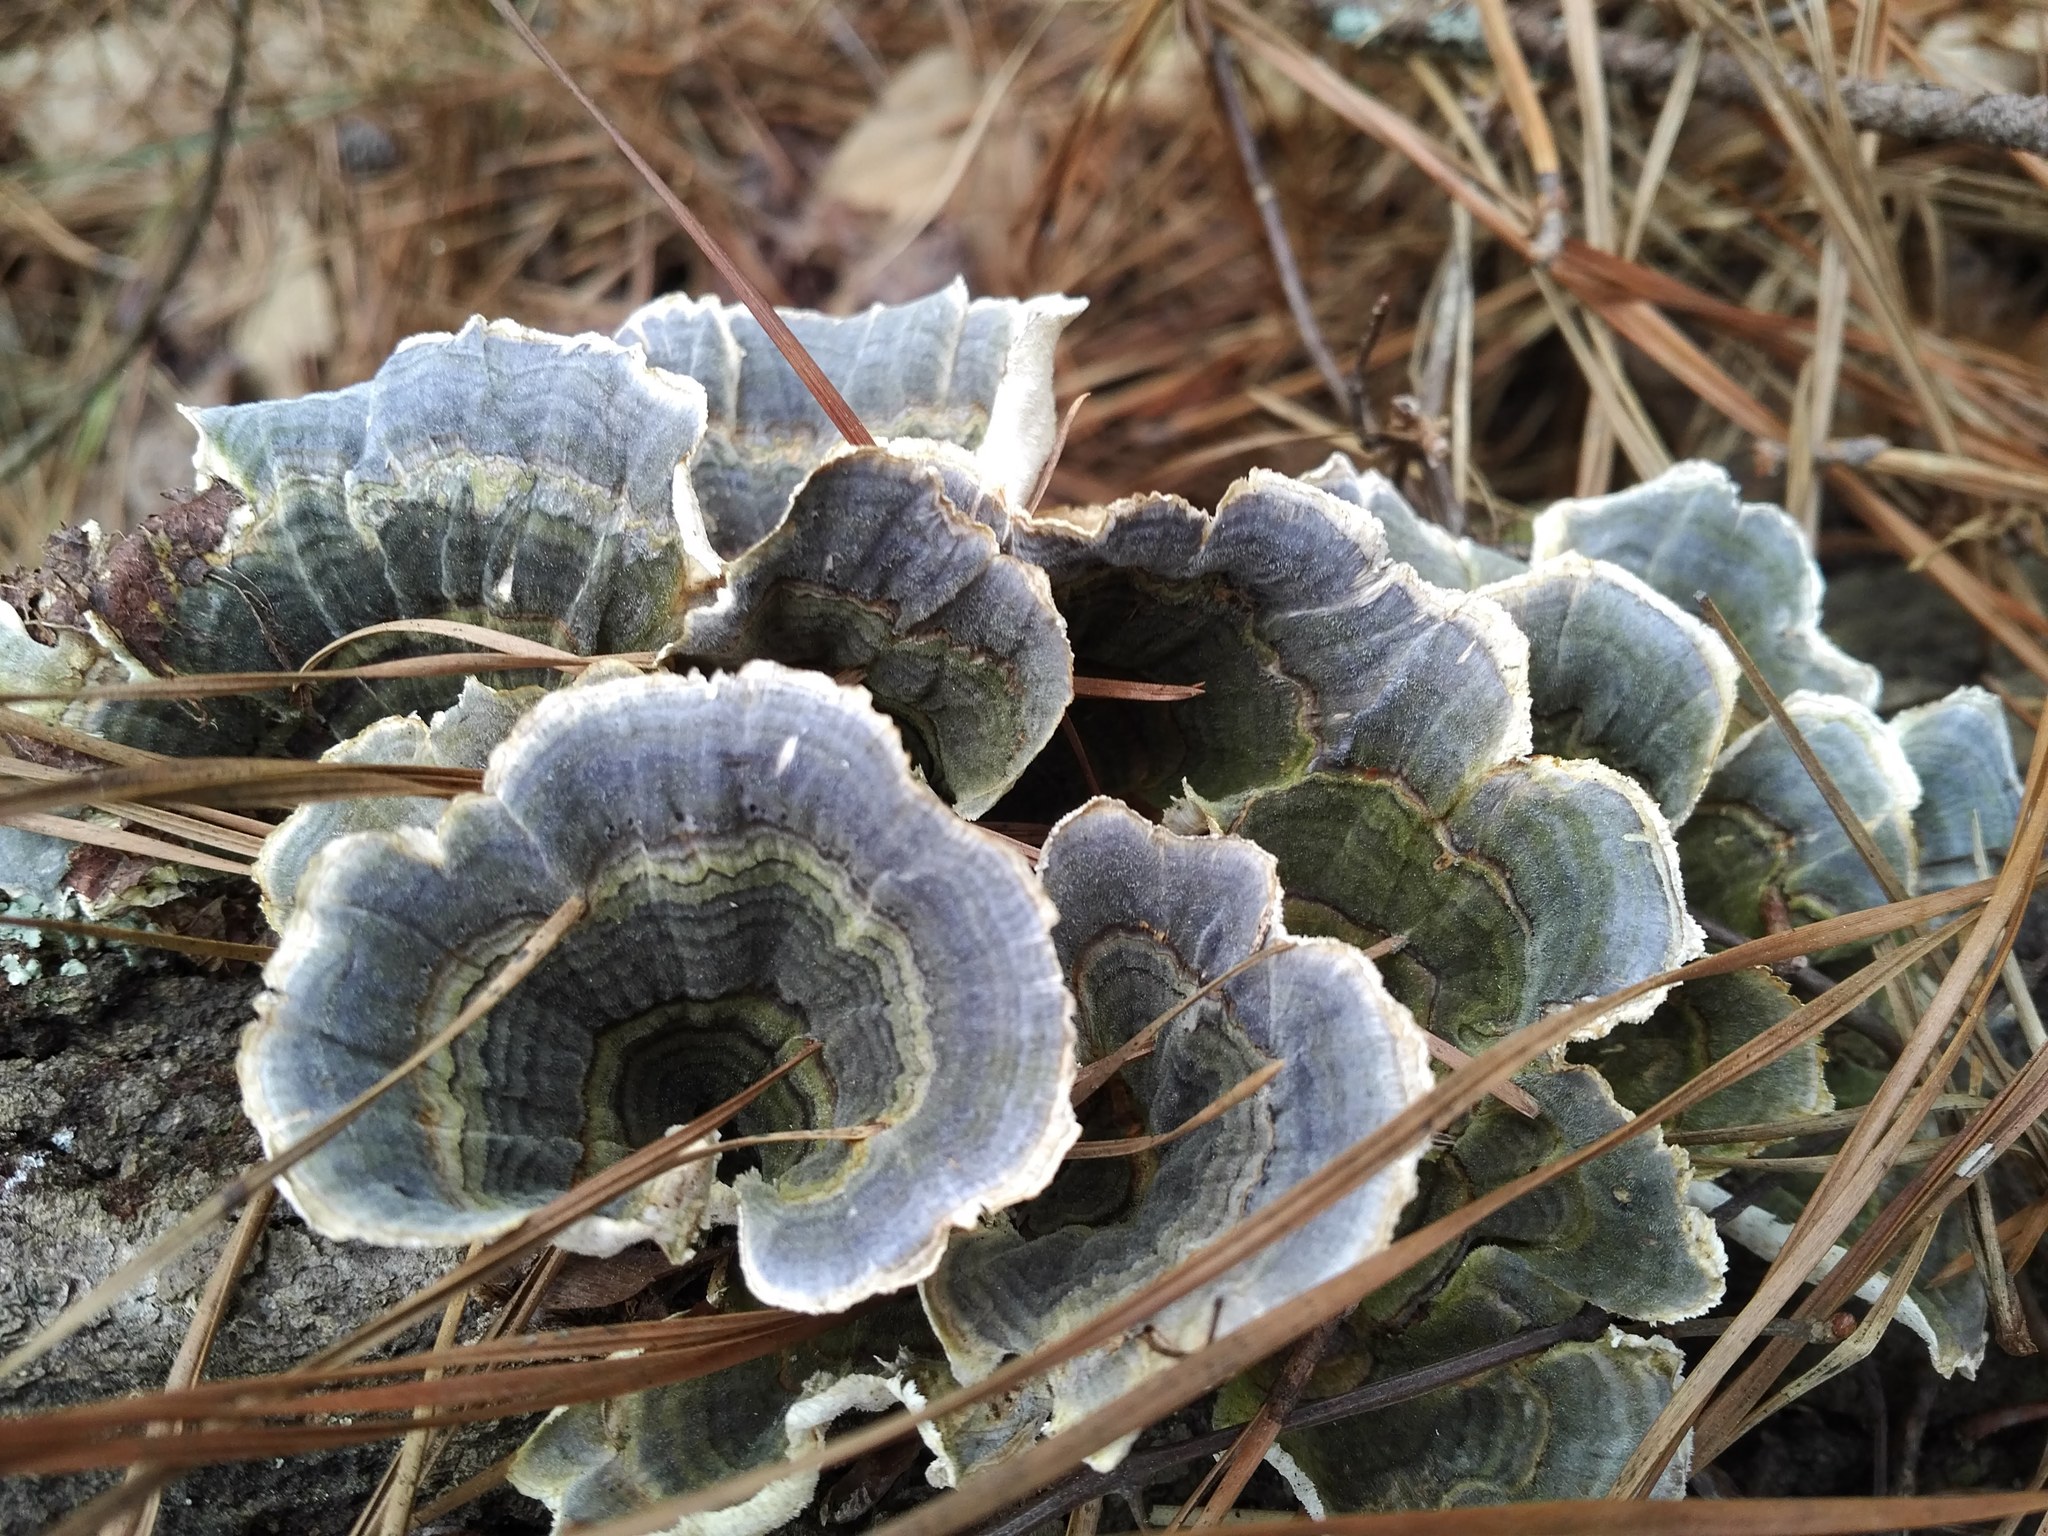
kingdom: Fungi
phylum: Basidiomycota
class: Agaricomycetes
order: Polyporales
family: Polyporaceae
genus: Trametes
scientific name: Trametes versicolor
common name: Turkeytail
